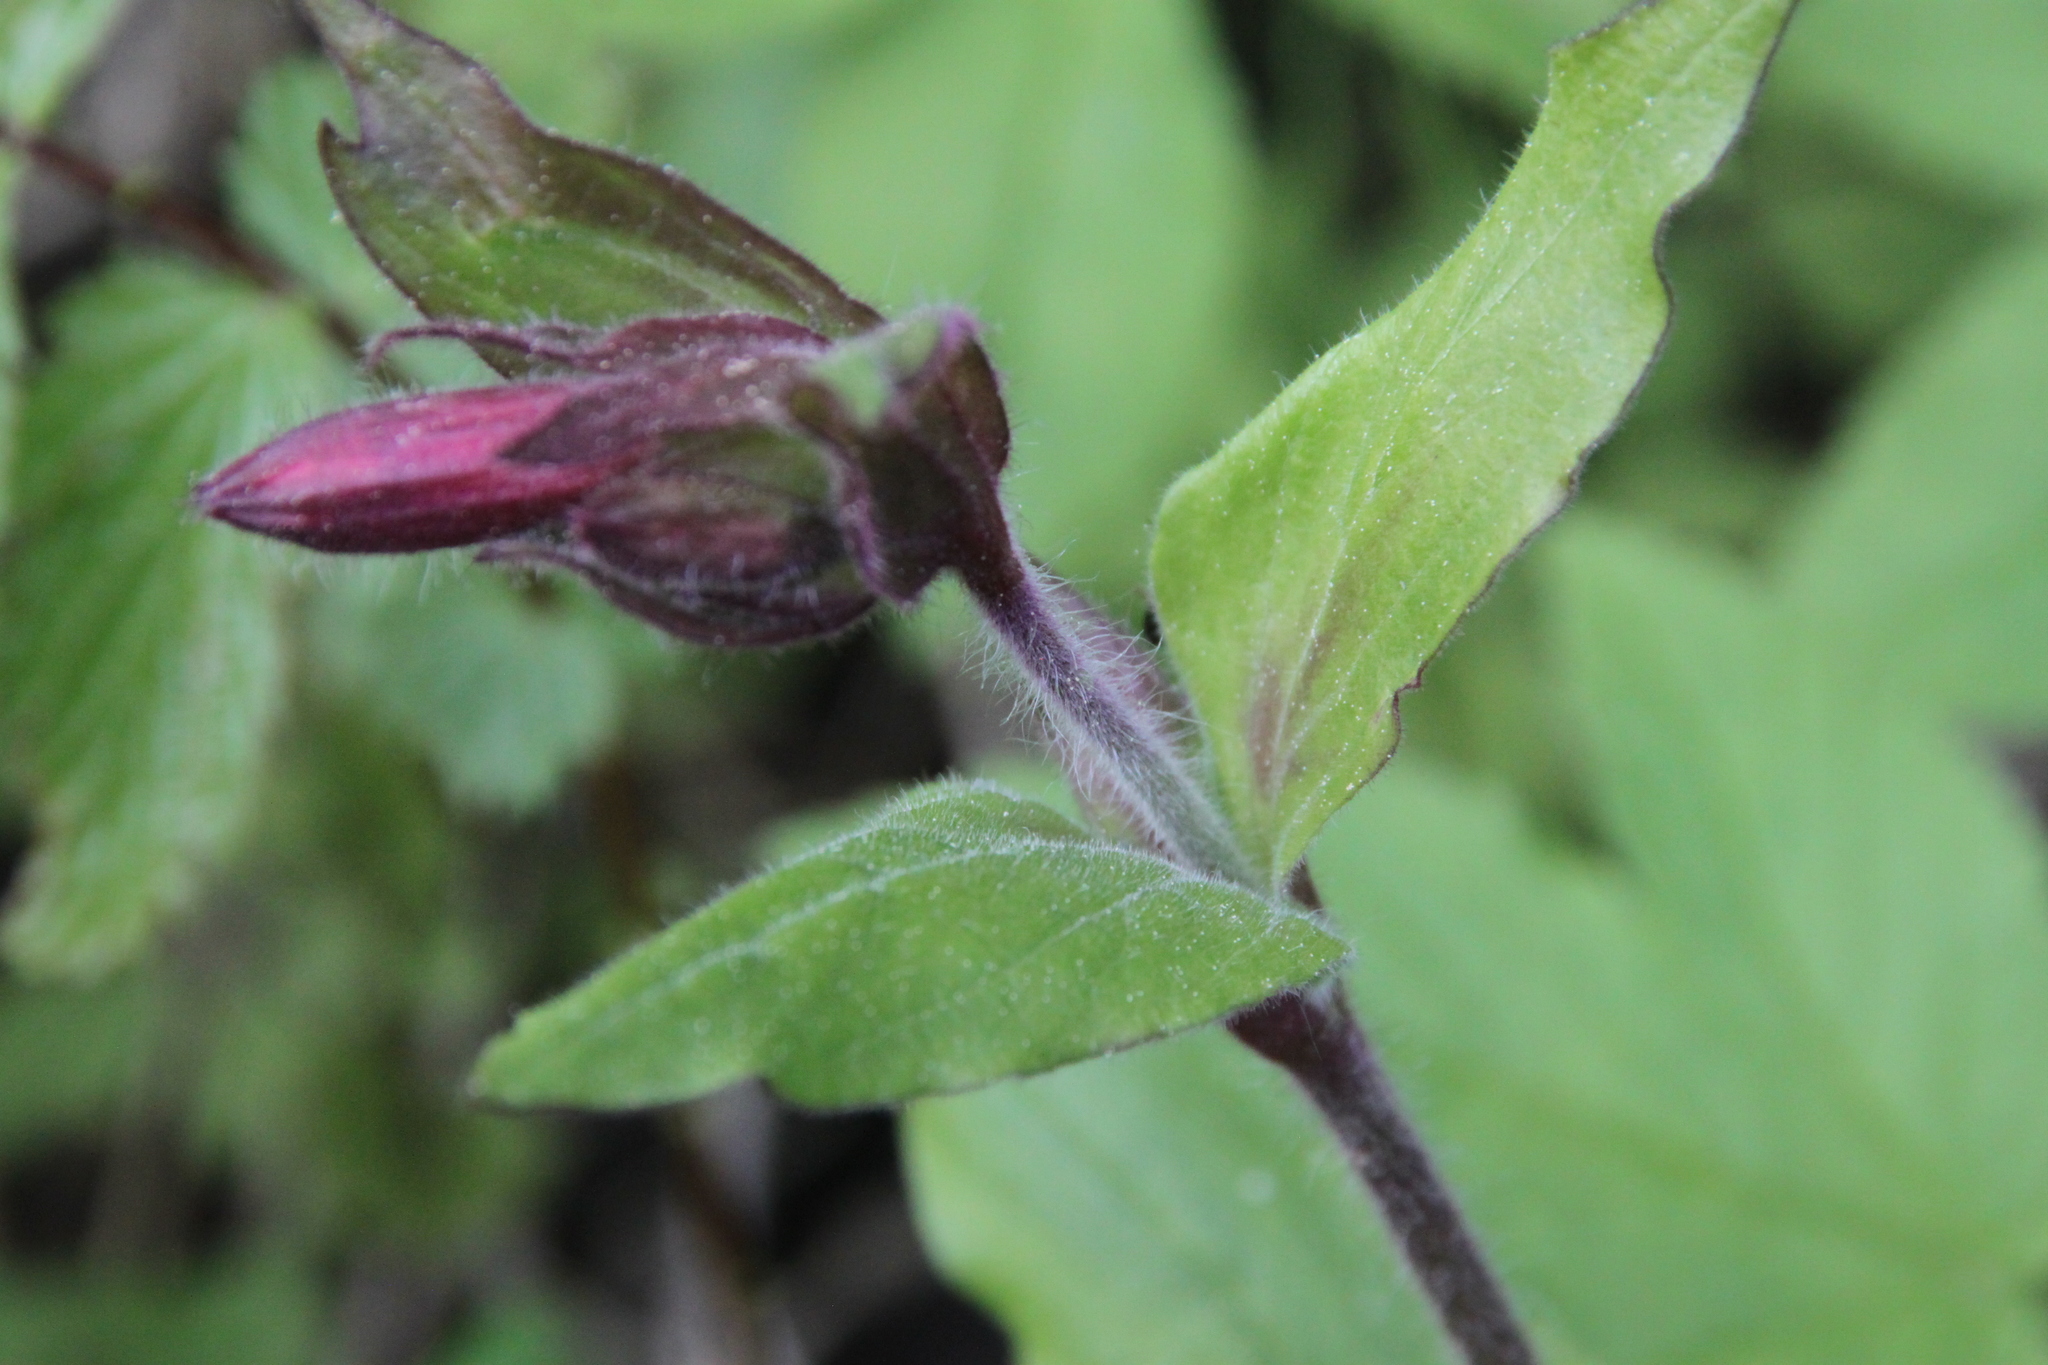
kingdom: Plantae
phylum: Tracheophyta
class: Magnoliopsida
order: Caryophyllales
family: Caryophyllaceae
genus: Silene
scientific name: Silene dioica
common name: Red campion
